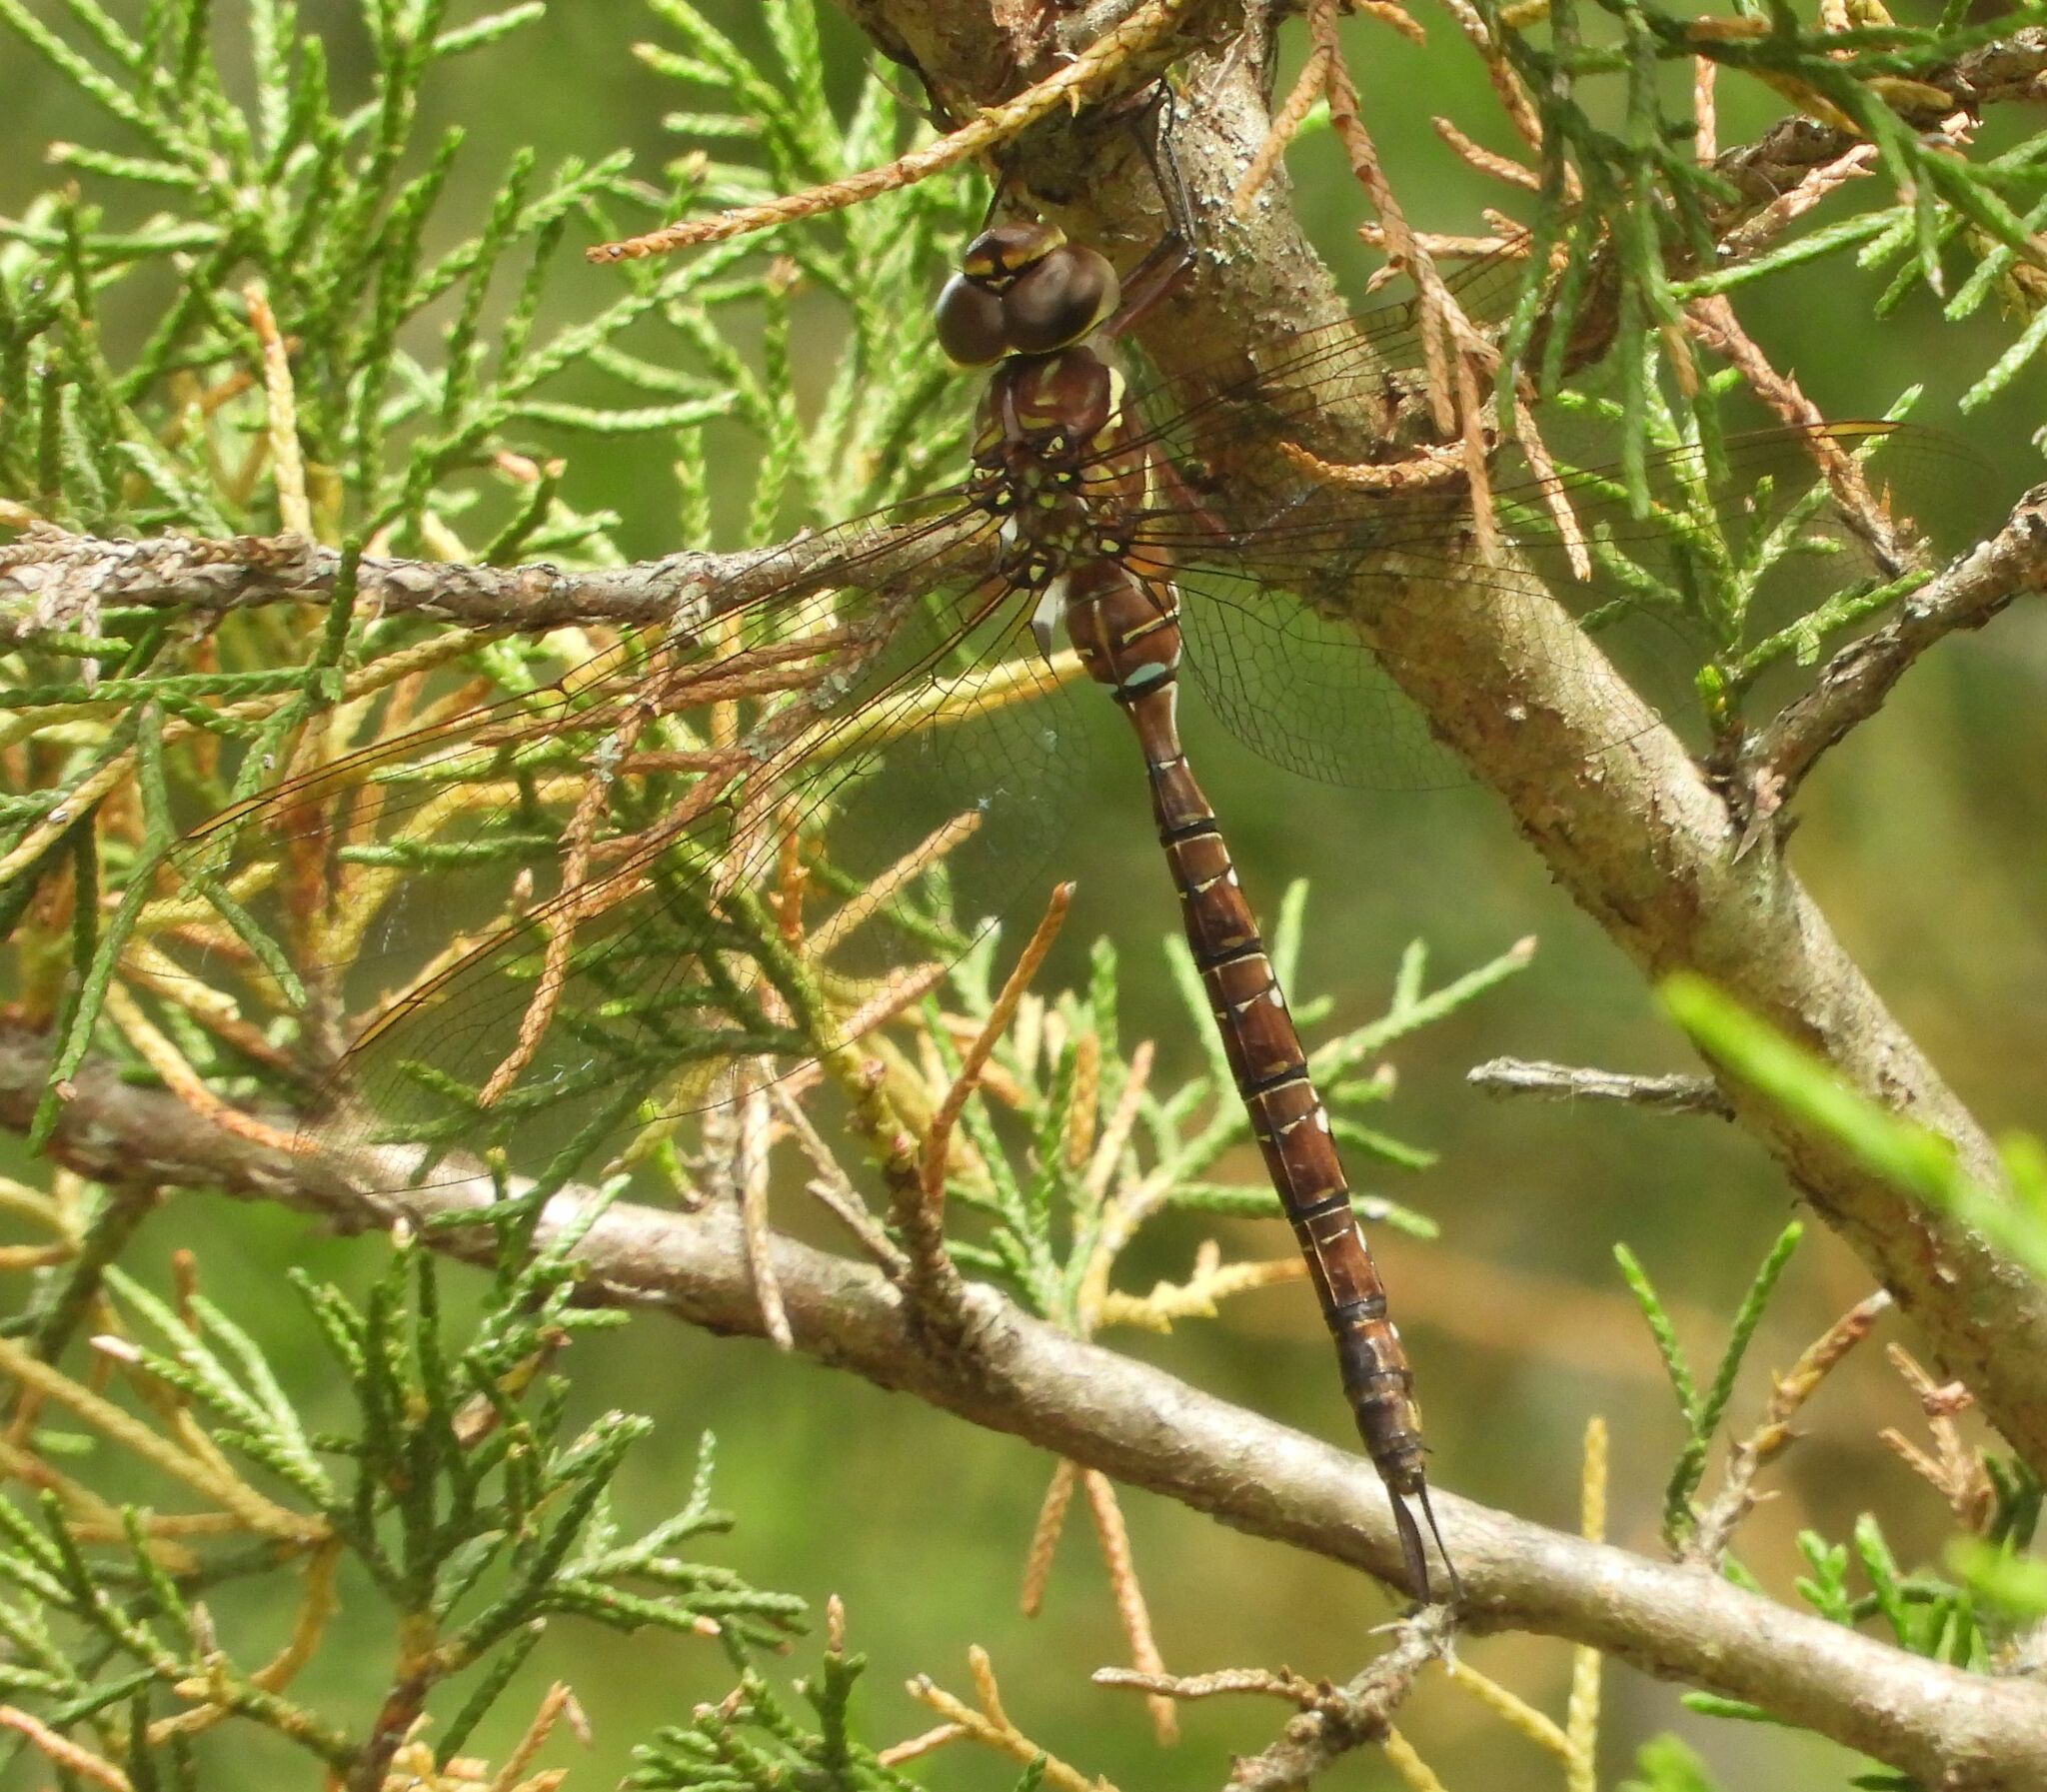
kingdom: Animalia
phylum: Arthropoda
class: Insecta
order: Odonata
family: Aeshnidae
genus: Aeshna
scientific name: Aeshna umbrosa
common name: Shadow darner
